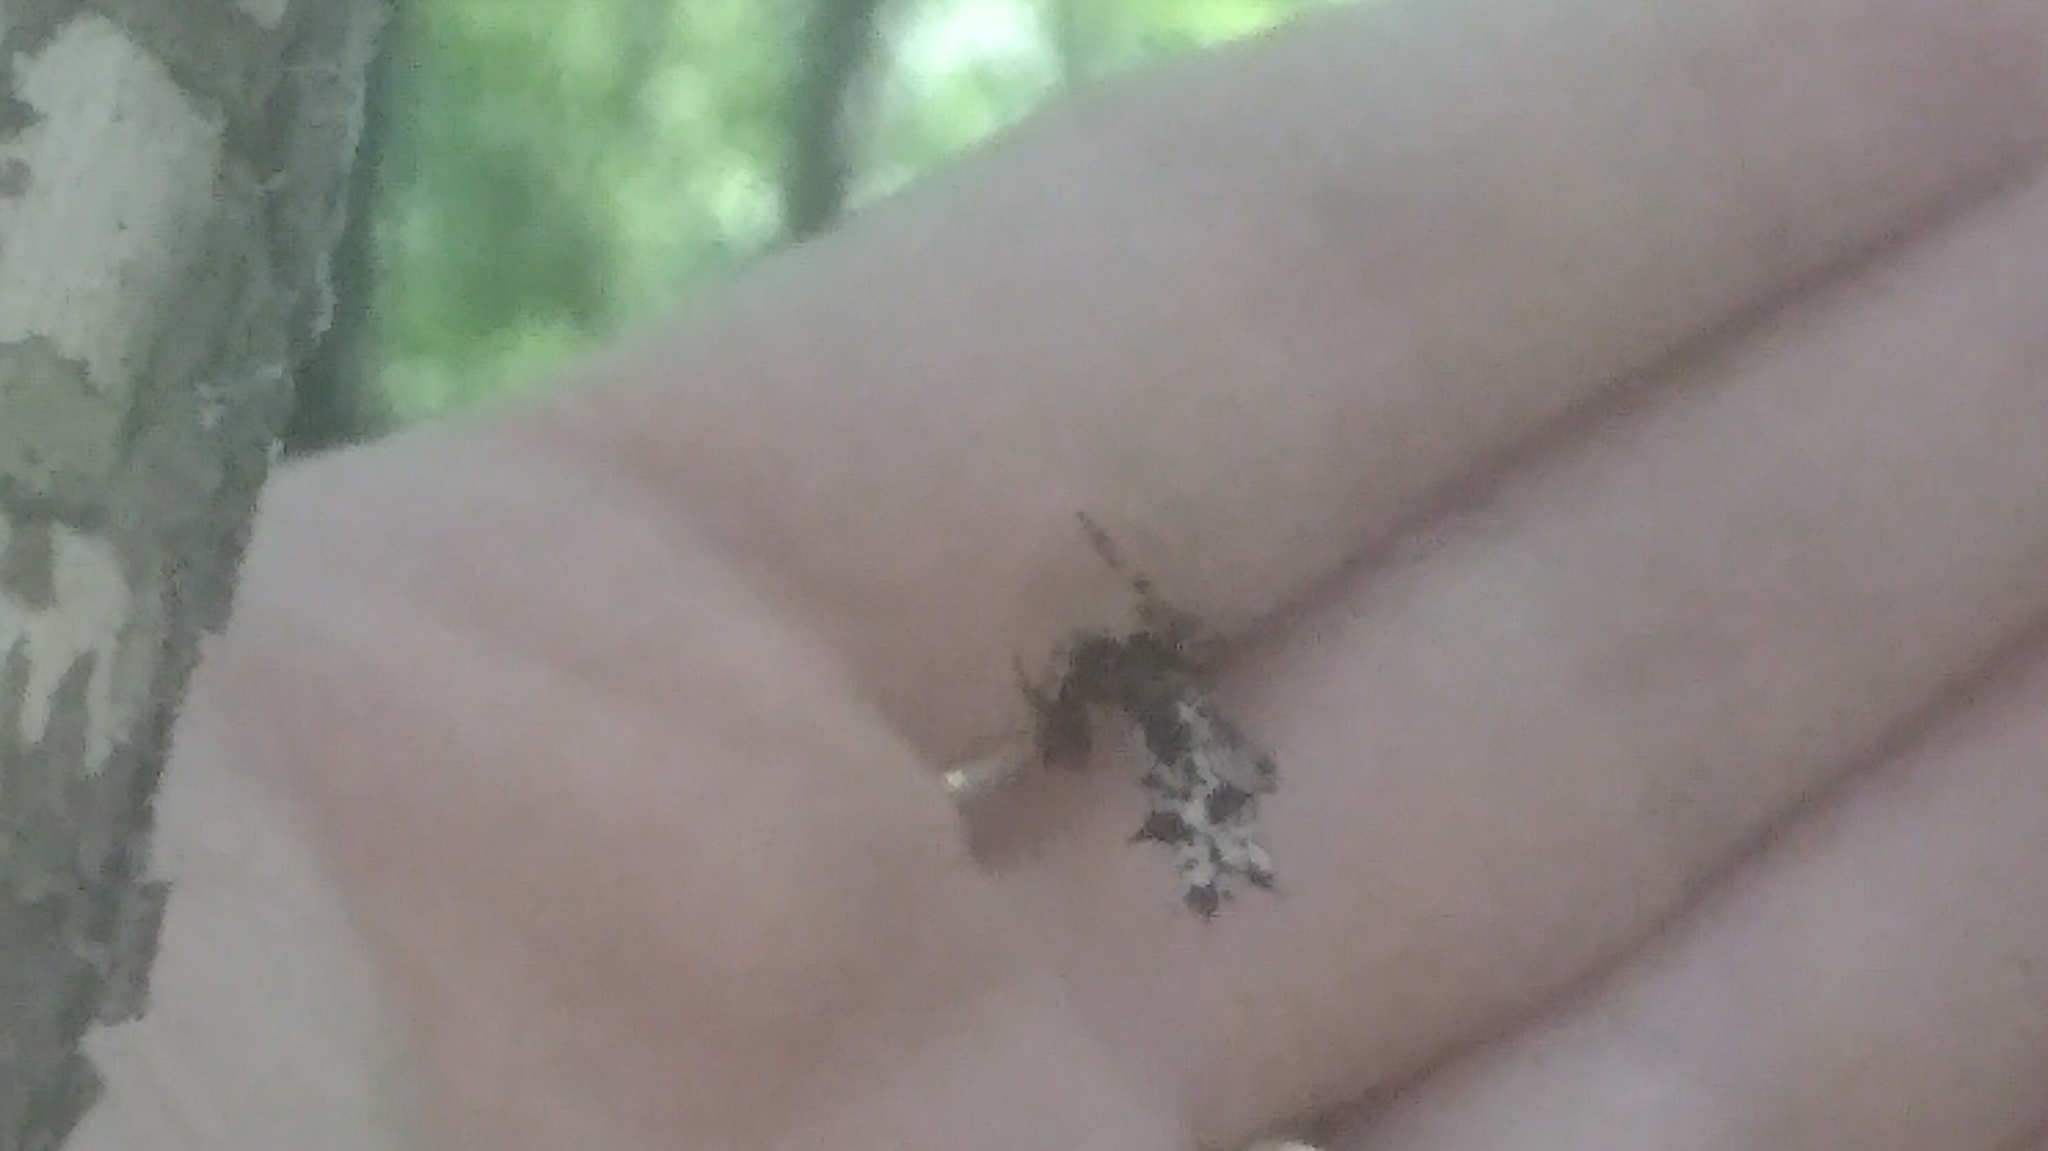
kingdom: Animalia
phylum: Arthropoda
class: Arachnida
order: Araneae
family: Araneidae
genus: Micrathena
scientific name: Micrathena gracilis
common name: Orb weavers
